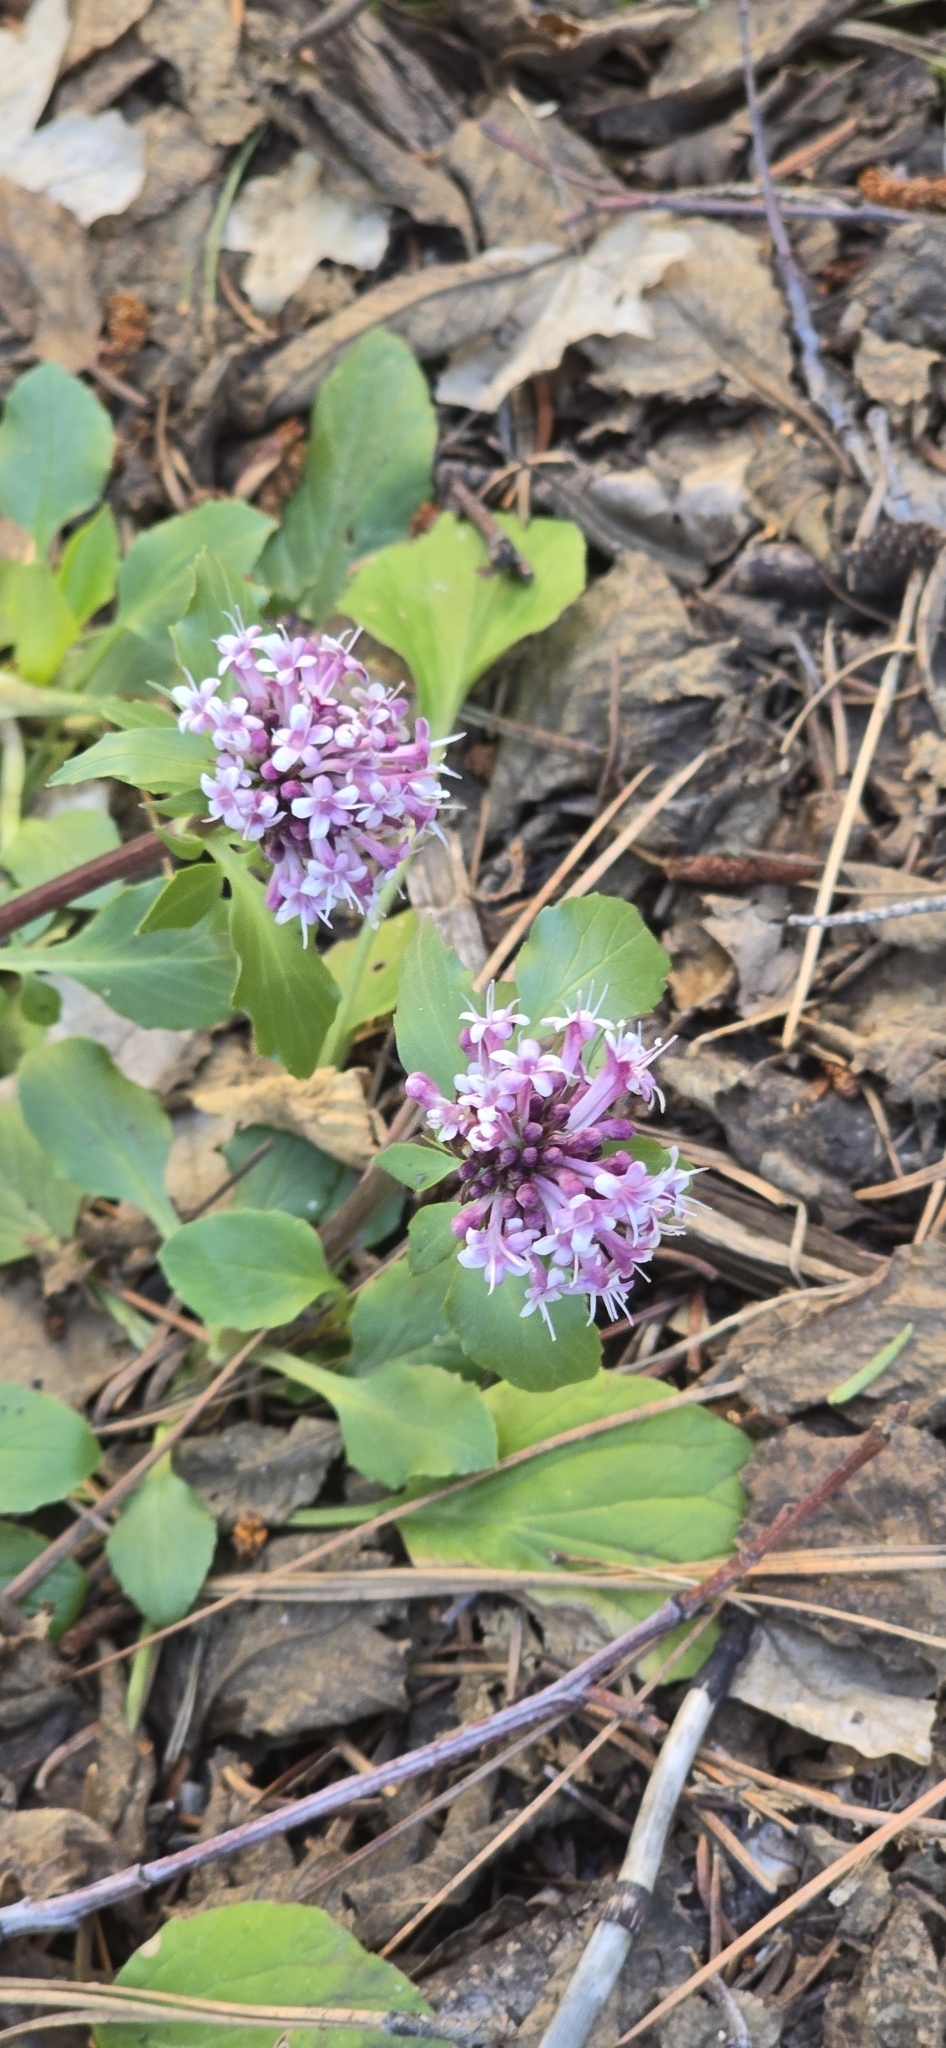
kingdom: Plantae
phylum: Tracheophyta
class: Magnoliopsida
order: Dipsacales
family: Caprifoliaceae
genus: Valeriana
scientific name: Valeriana arizonica
